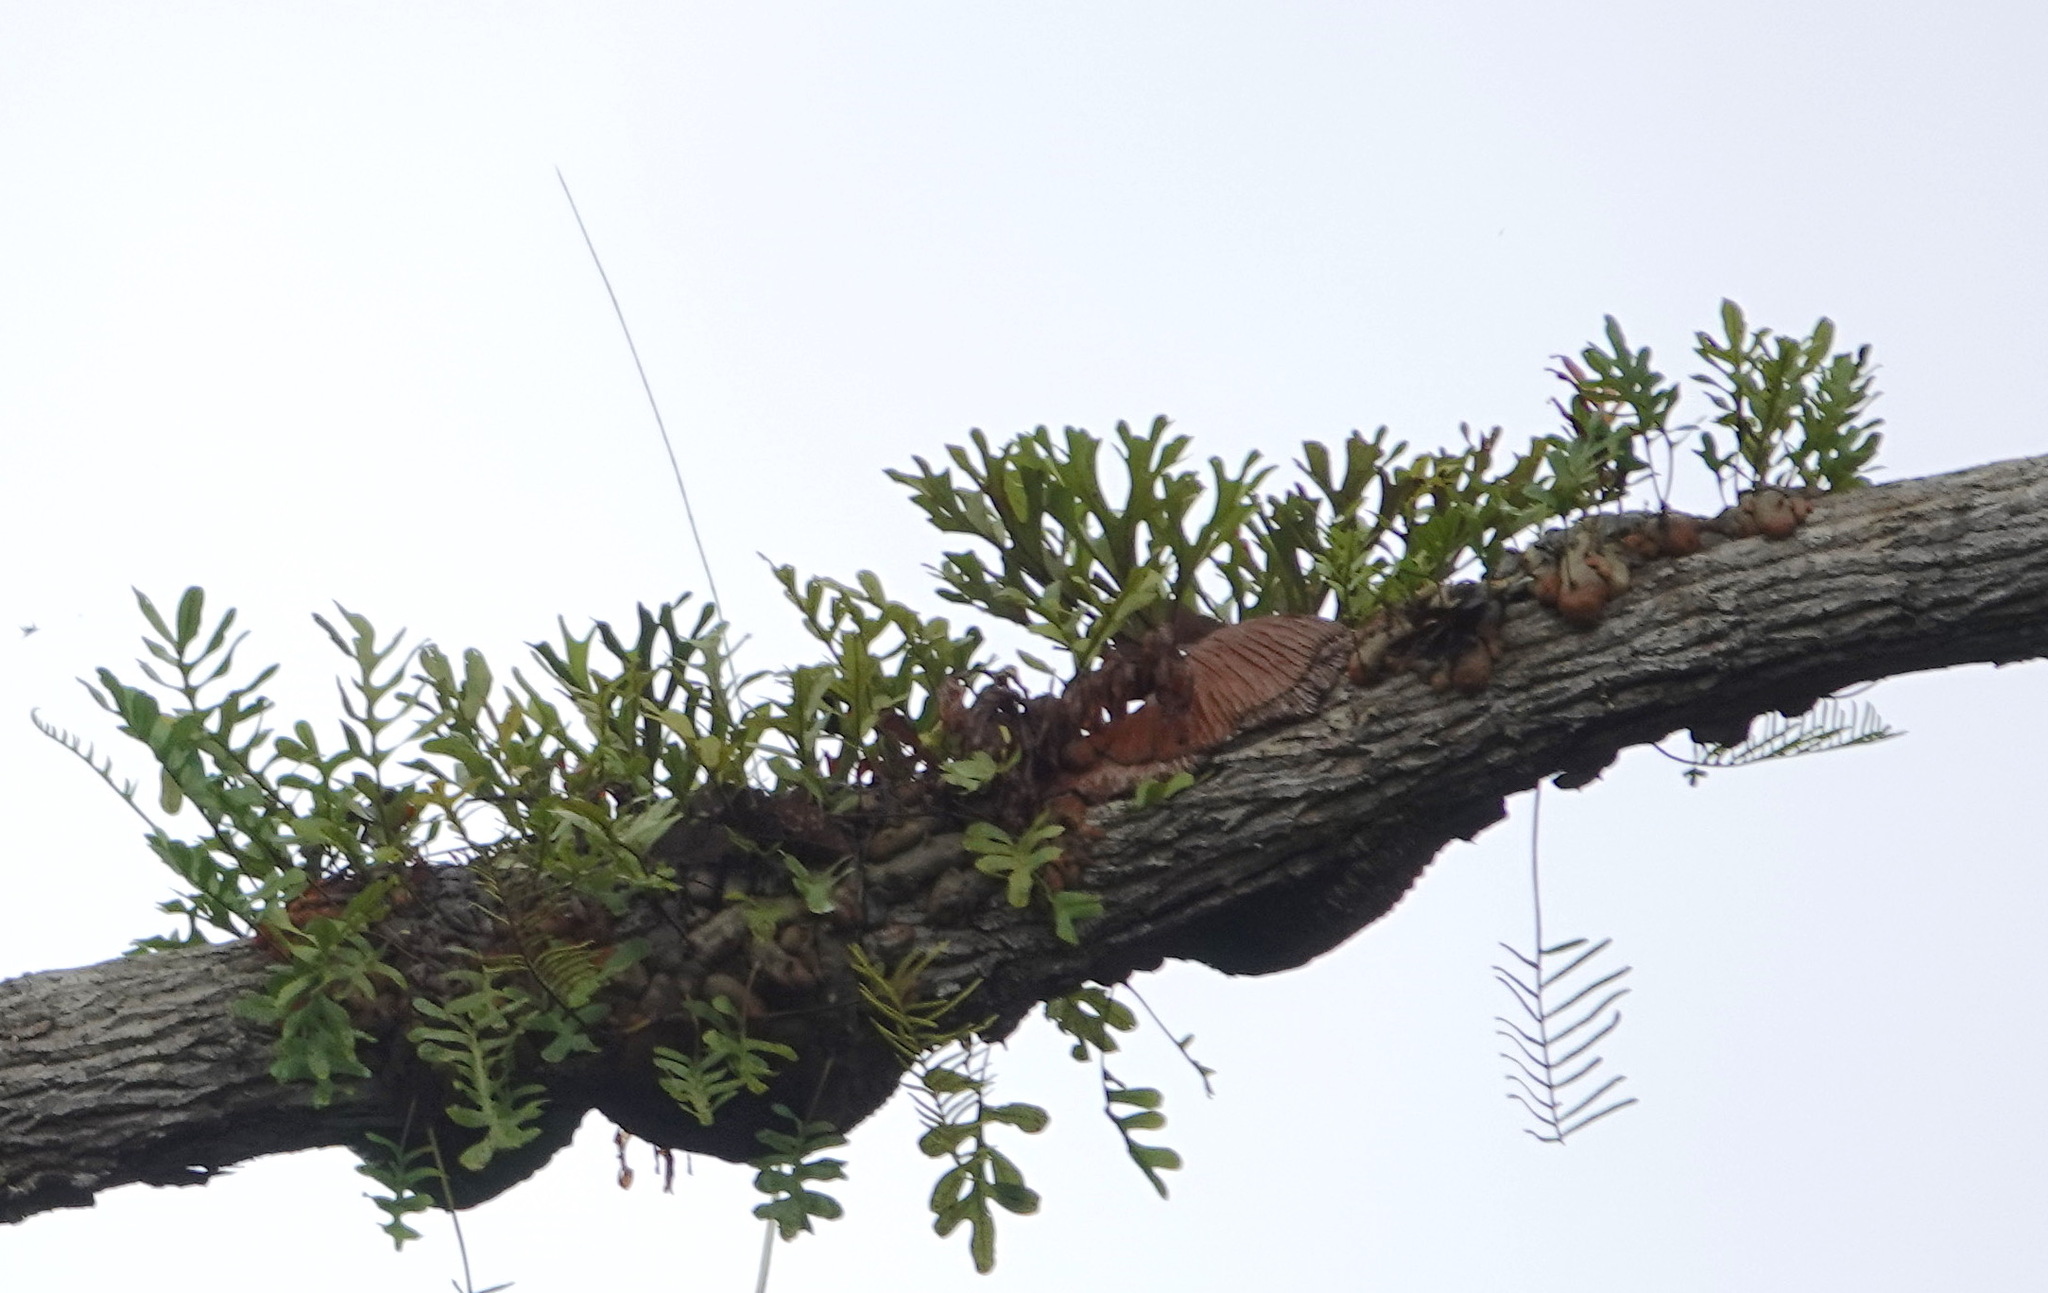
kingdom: Plantae
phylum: Tracheophyta
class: Polypodiopsida
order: Polypodiales
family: Polypodiaceae
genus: Platycerium
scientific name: Platycerium ridleyi
